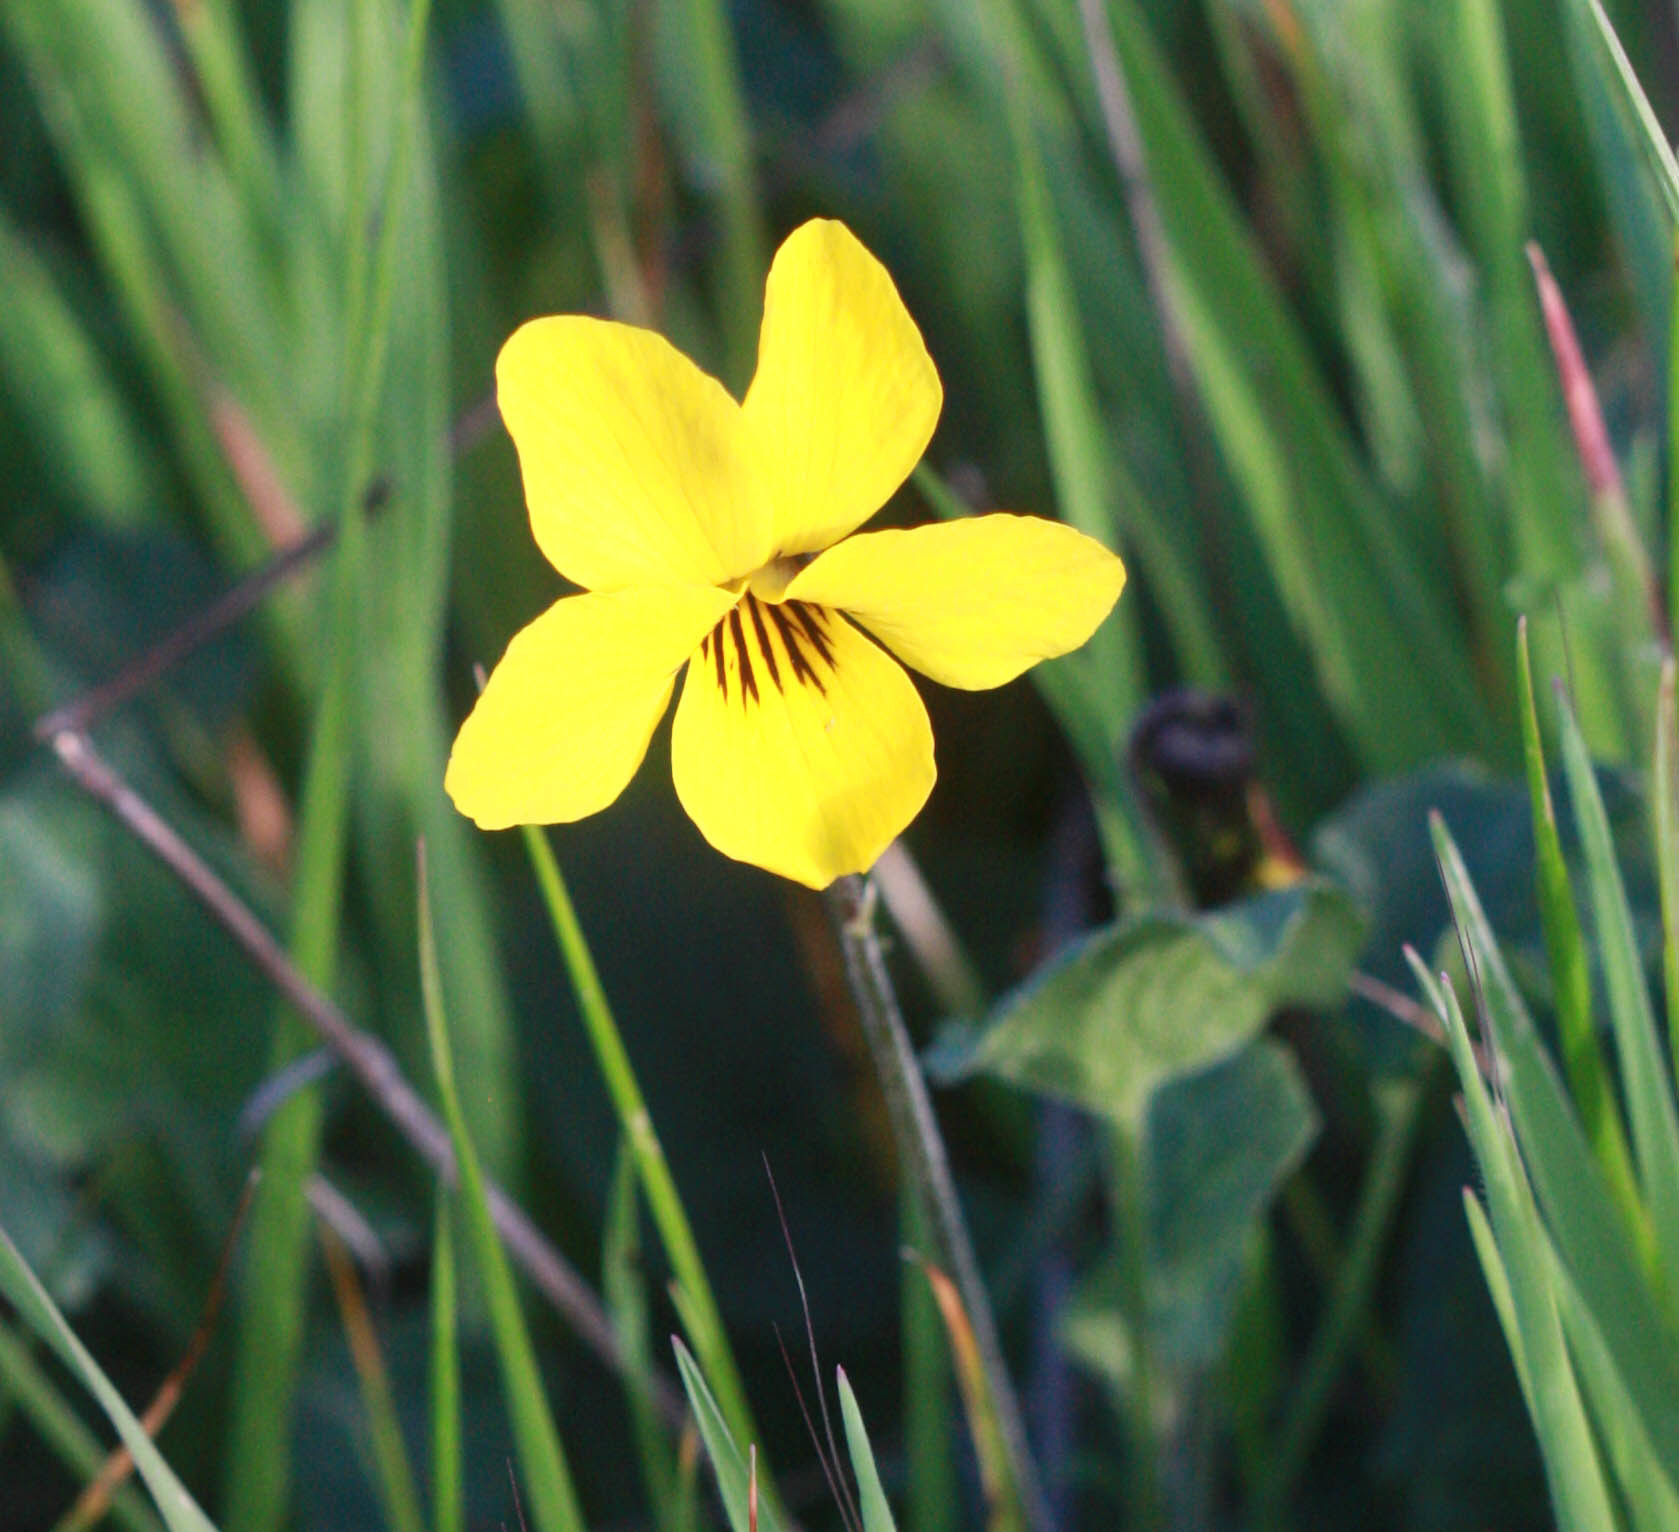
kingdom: Plantae
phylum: Tracheophyta
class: Magnoliopsida
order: Malpighiales
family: Violaceae
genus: Viola
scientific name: Viola pedunculata
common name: California golden violet
